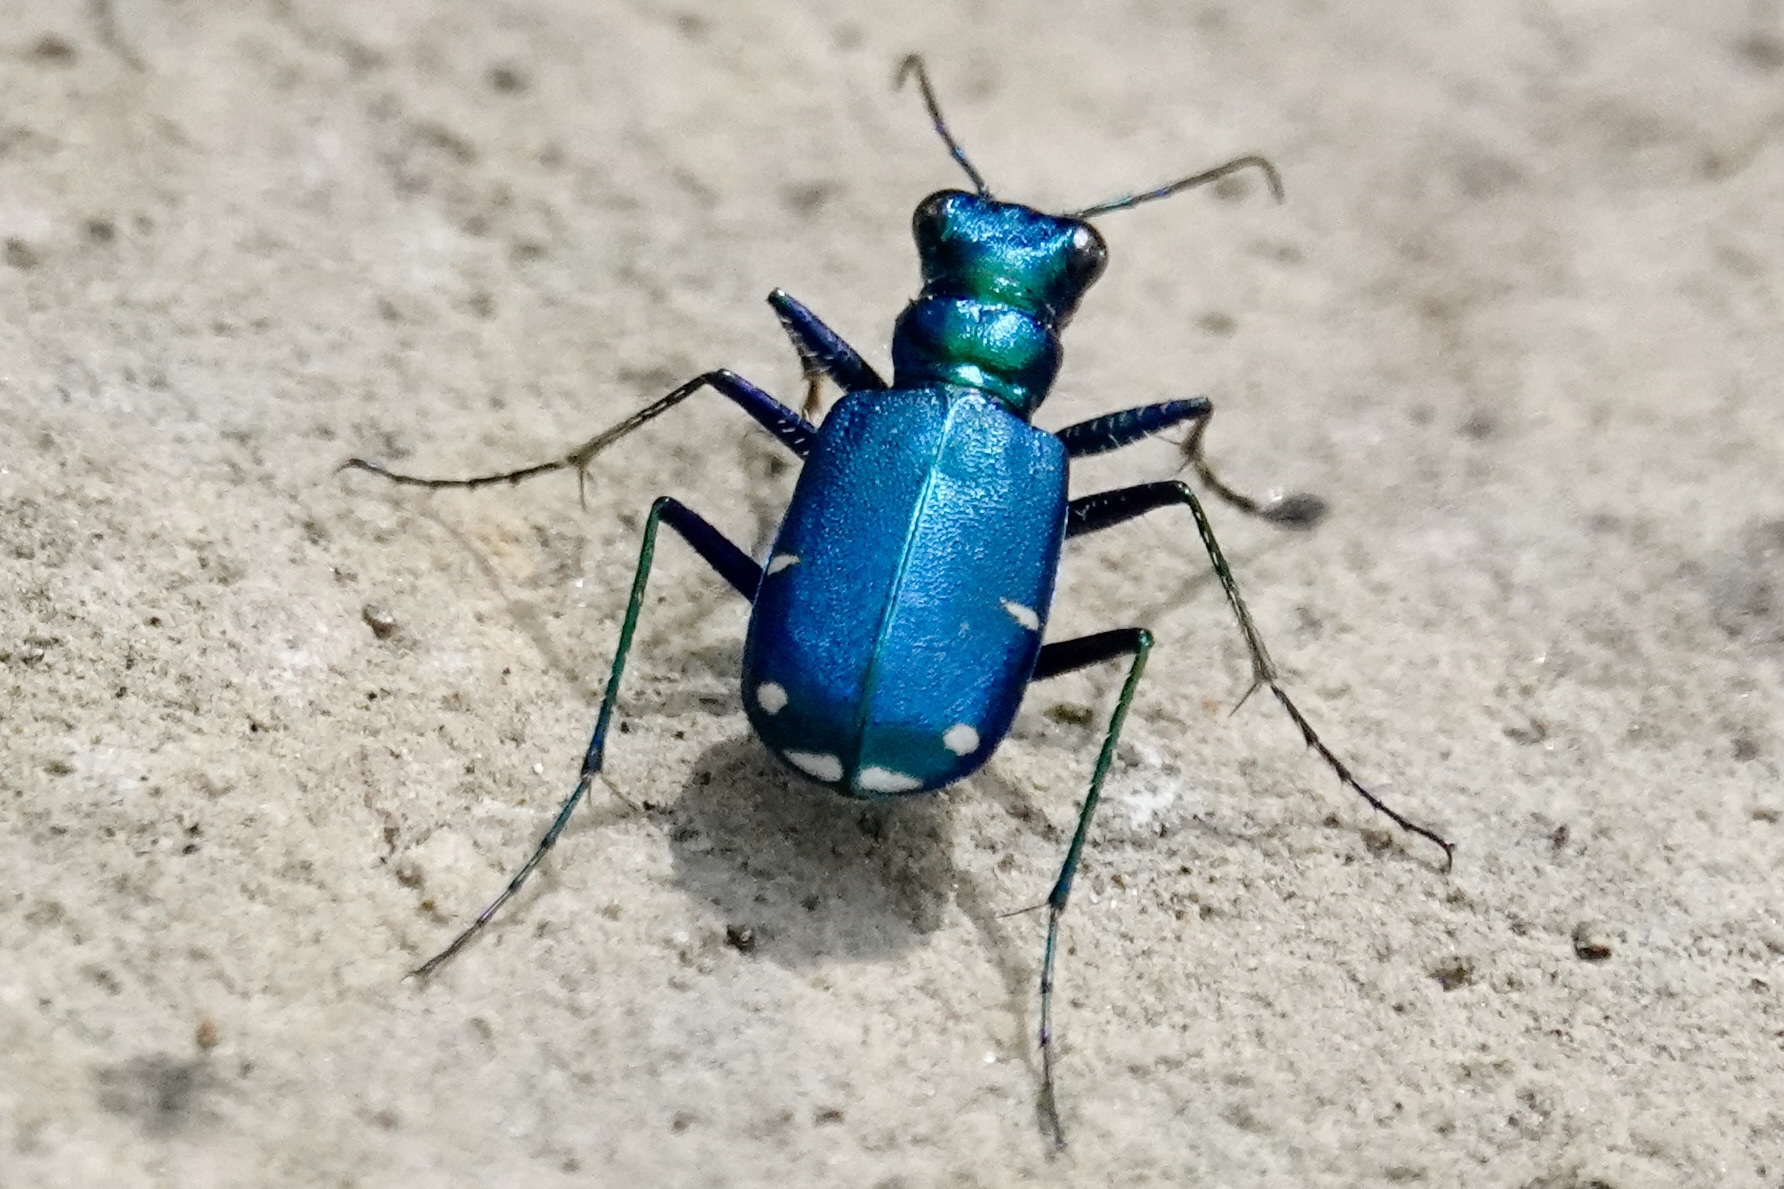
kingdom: Animalia
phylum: Arthropoda
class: Insecta
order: Coleoptera
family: Carabidae
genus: Cicindela
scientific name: Cicindela sexguttata
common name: Six-spotted tiger beetle
